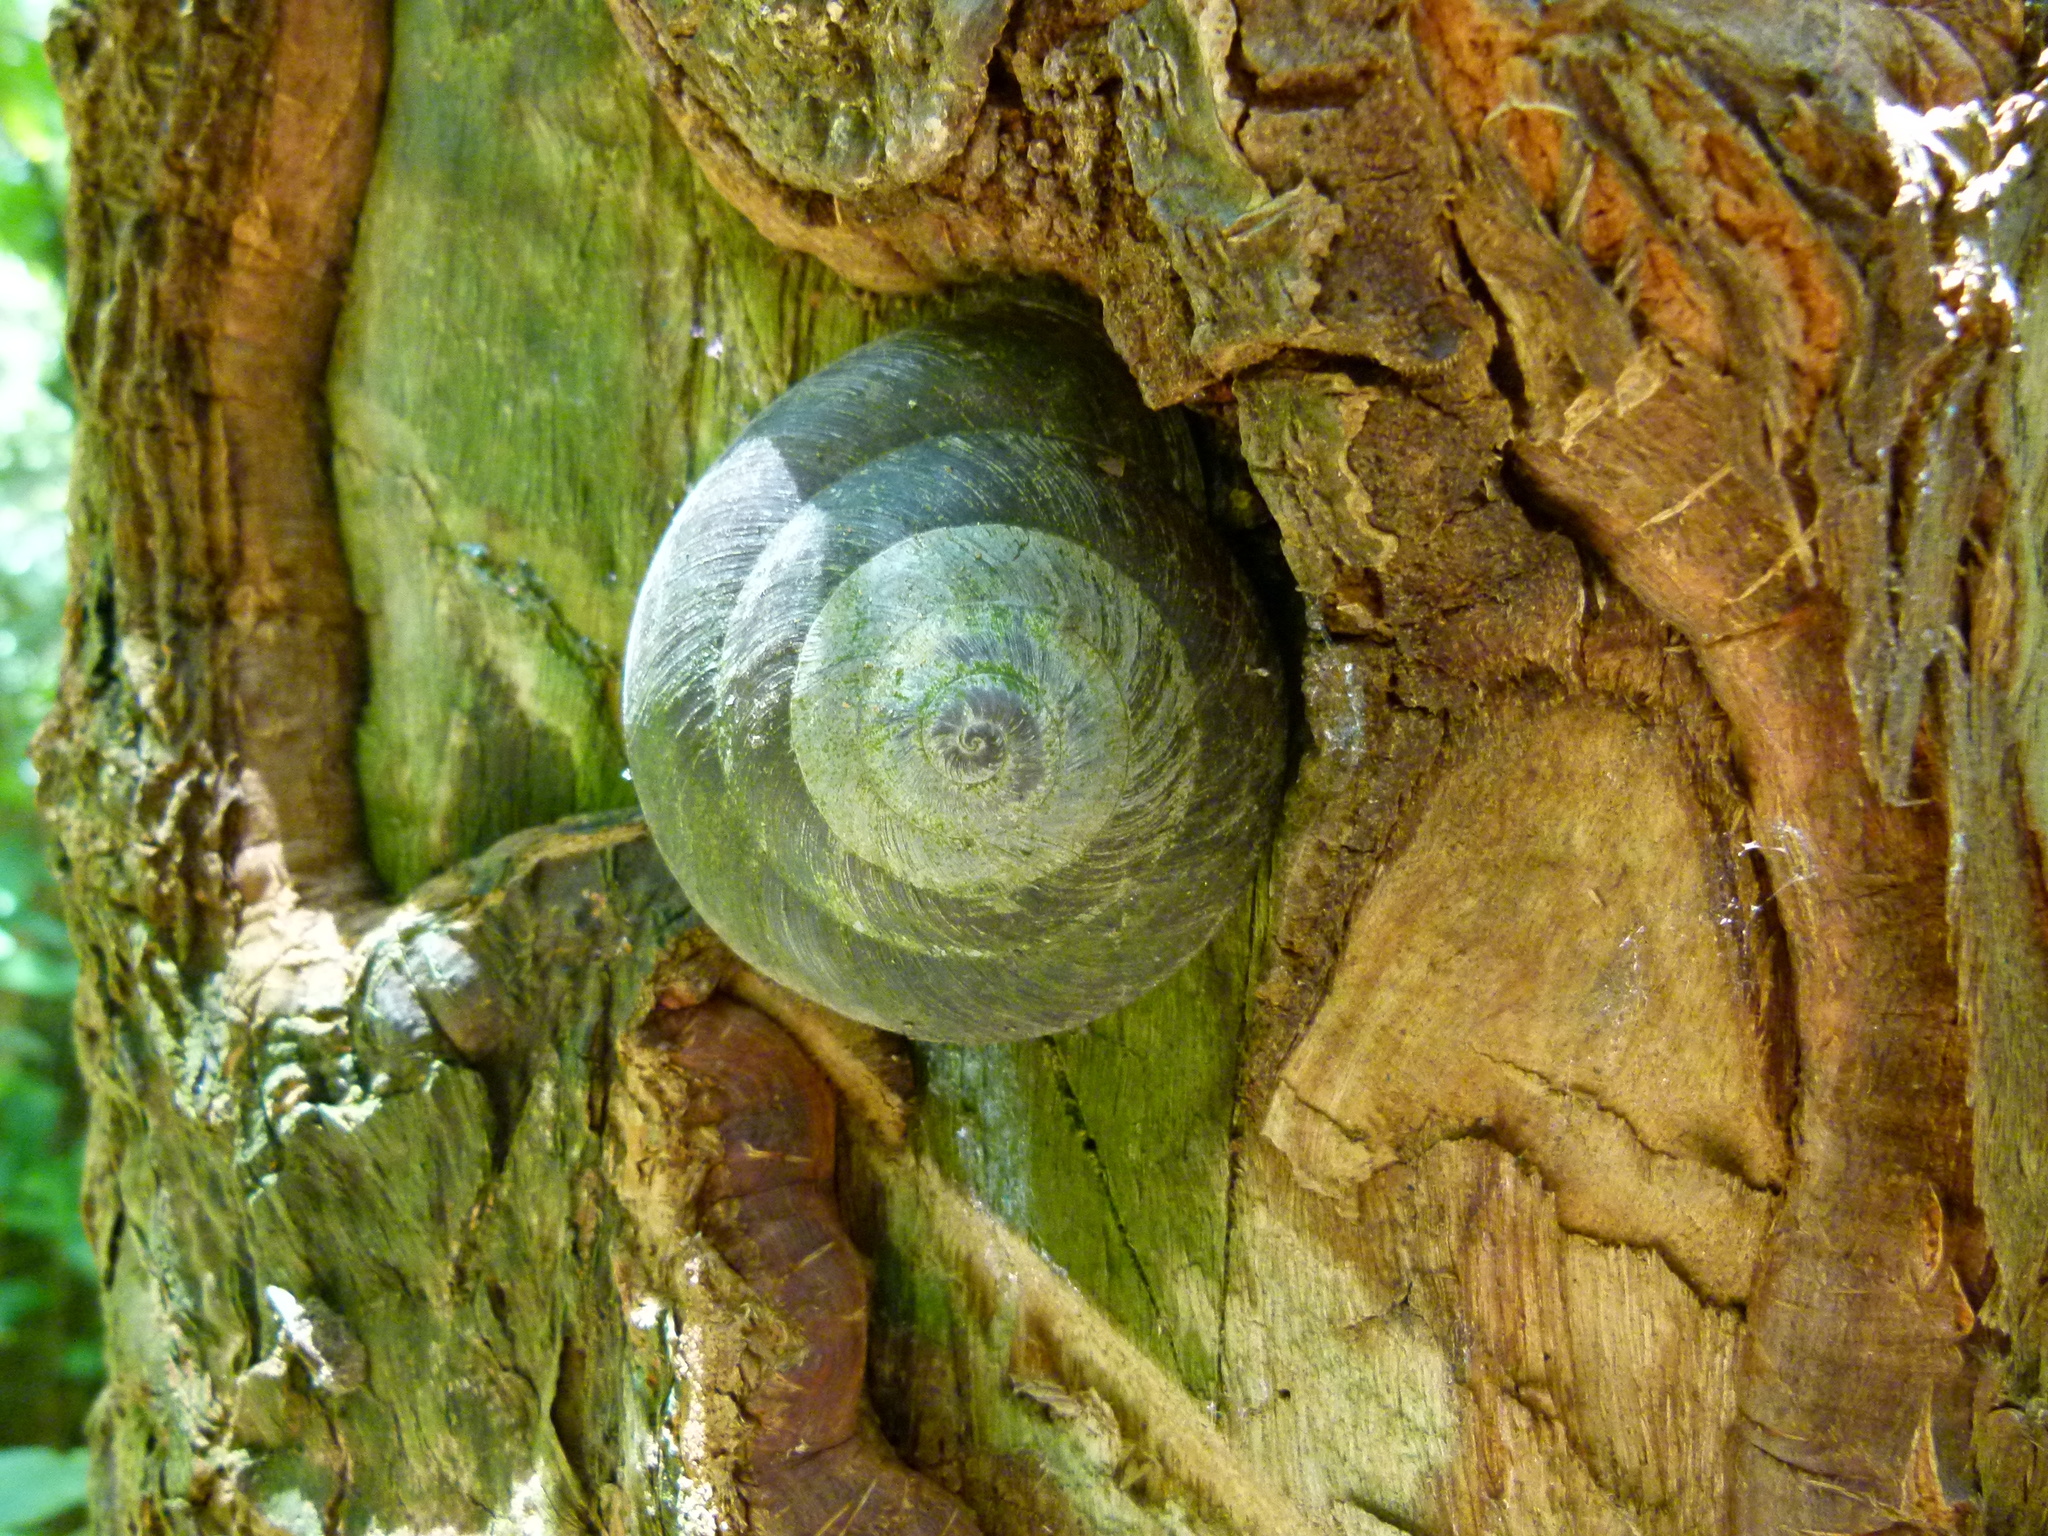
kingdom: Animalia
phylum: Mollusca
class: Gastropoda
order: Stylommatophora
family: Solaropsidae
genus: Caracolus
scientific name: Caracolus carocolla
